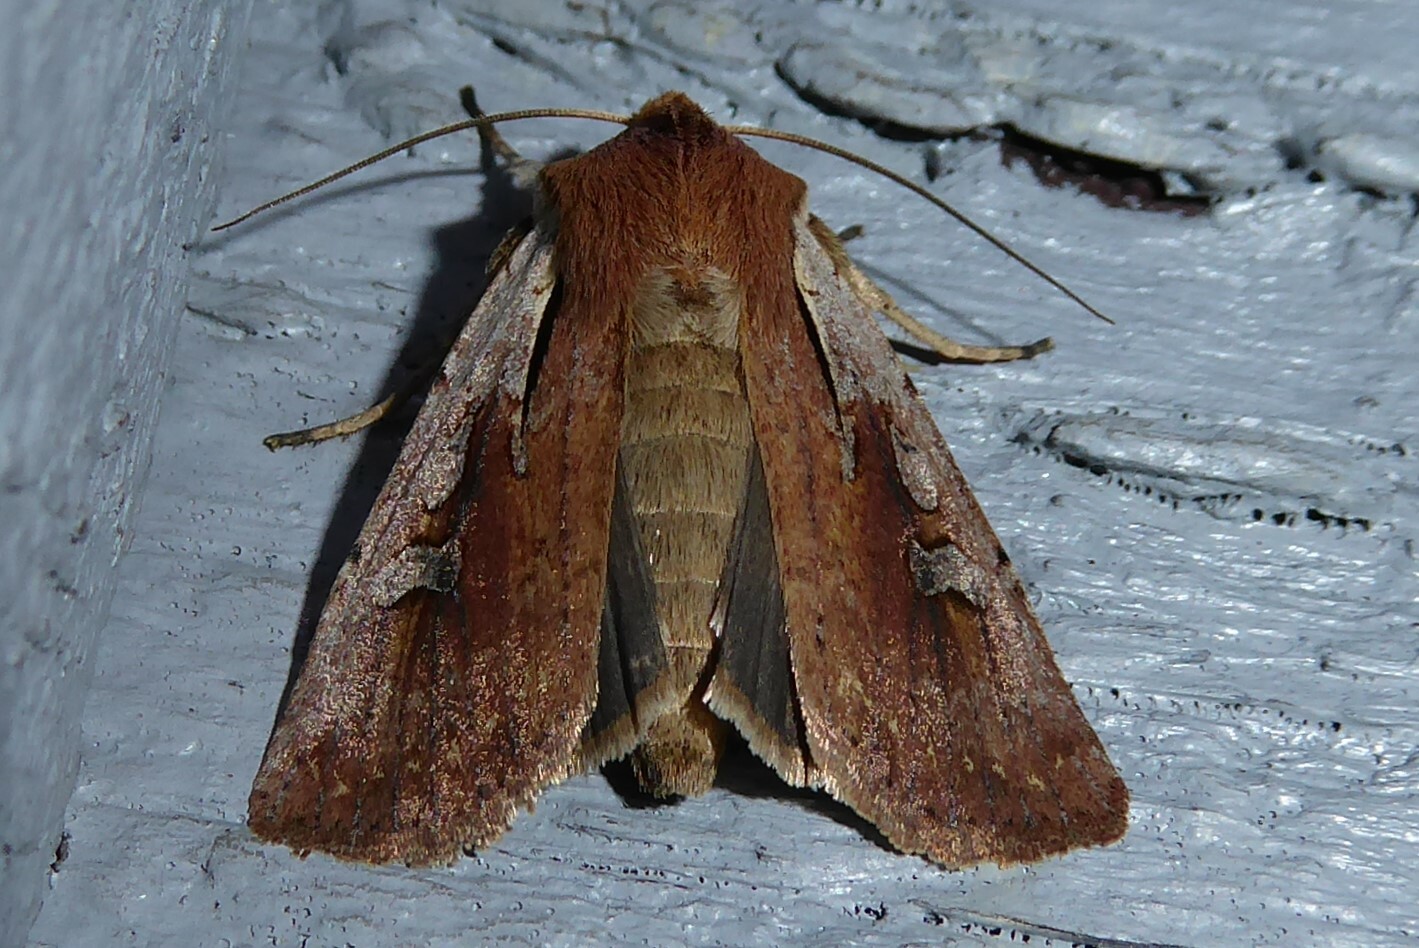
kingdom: Animalia
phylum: Arthropoda
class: Insecta
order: Lepidoptera
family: Noctuidae
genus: Ichneutica
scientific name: Ichneutica atristriga
